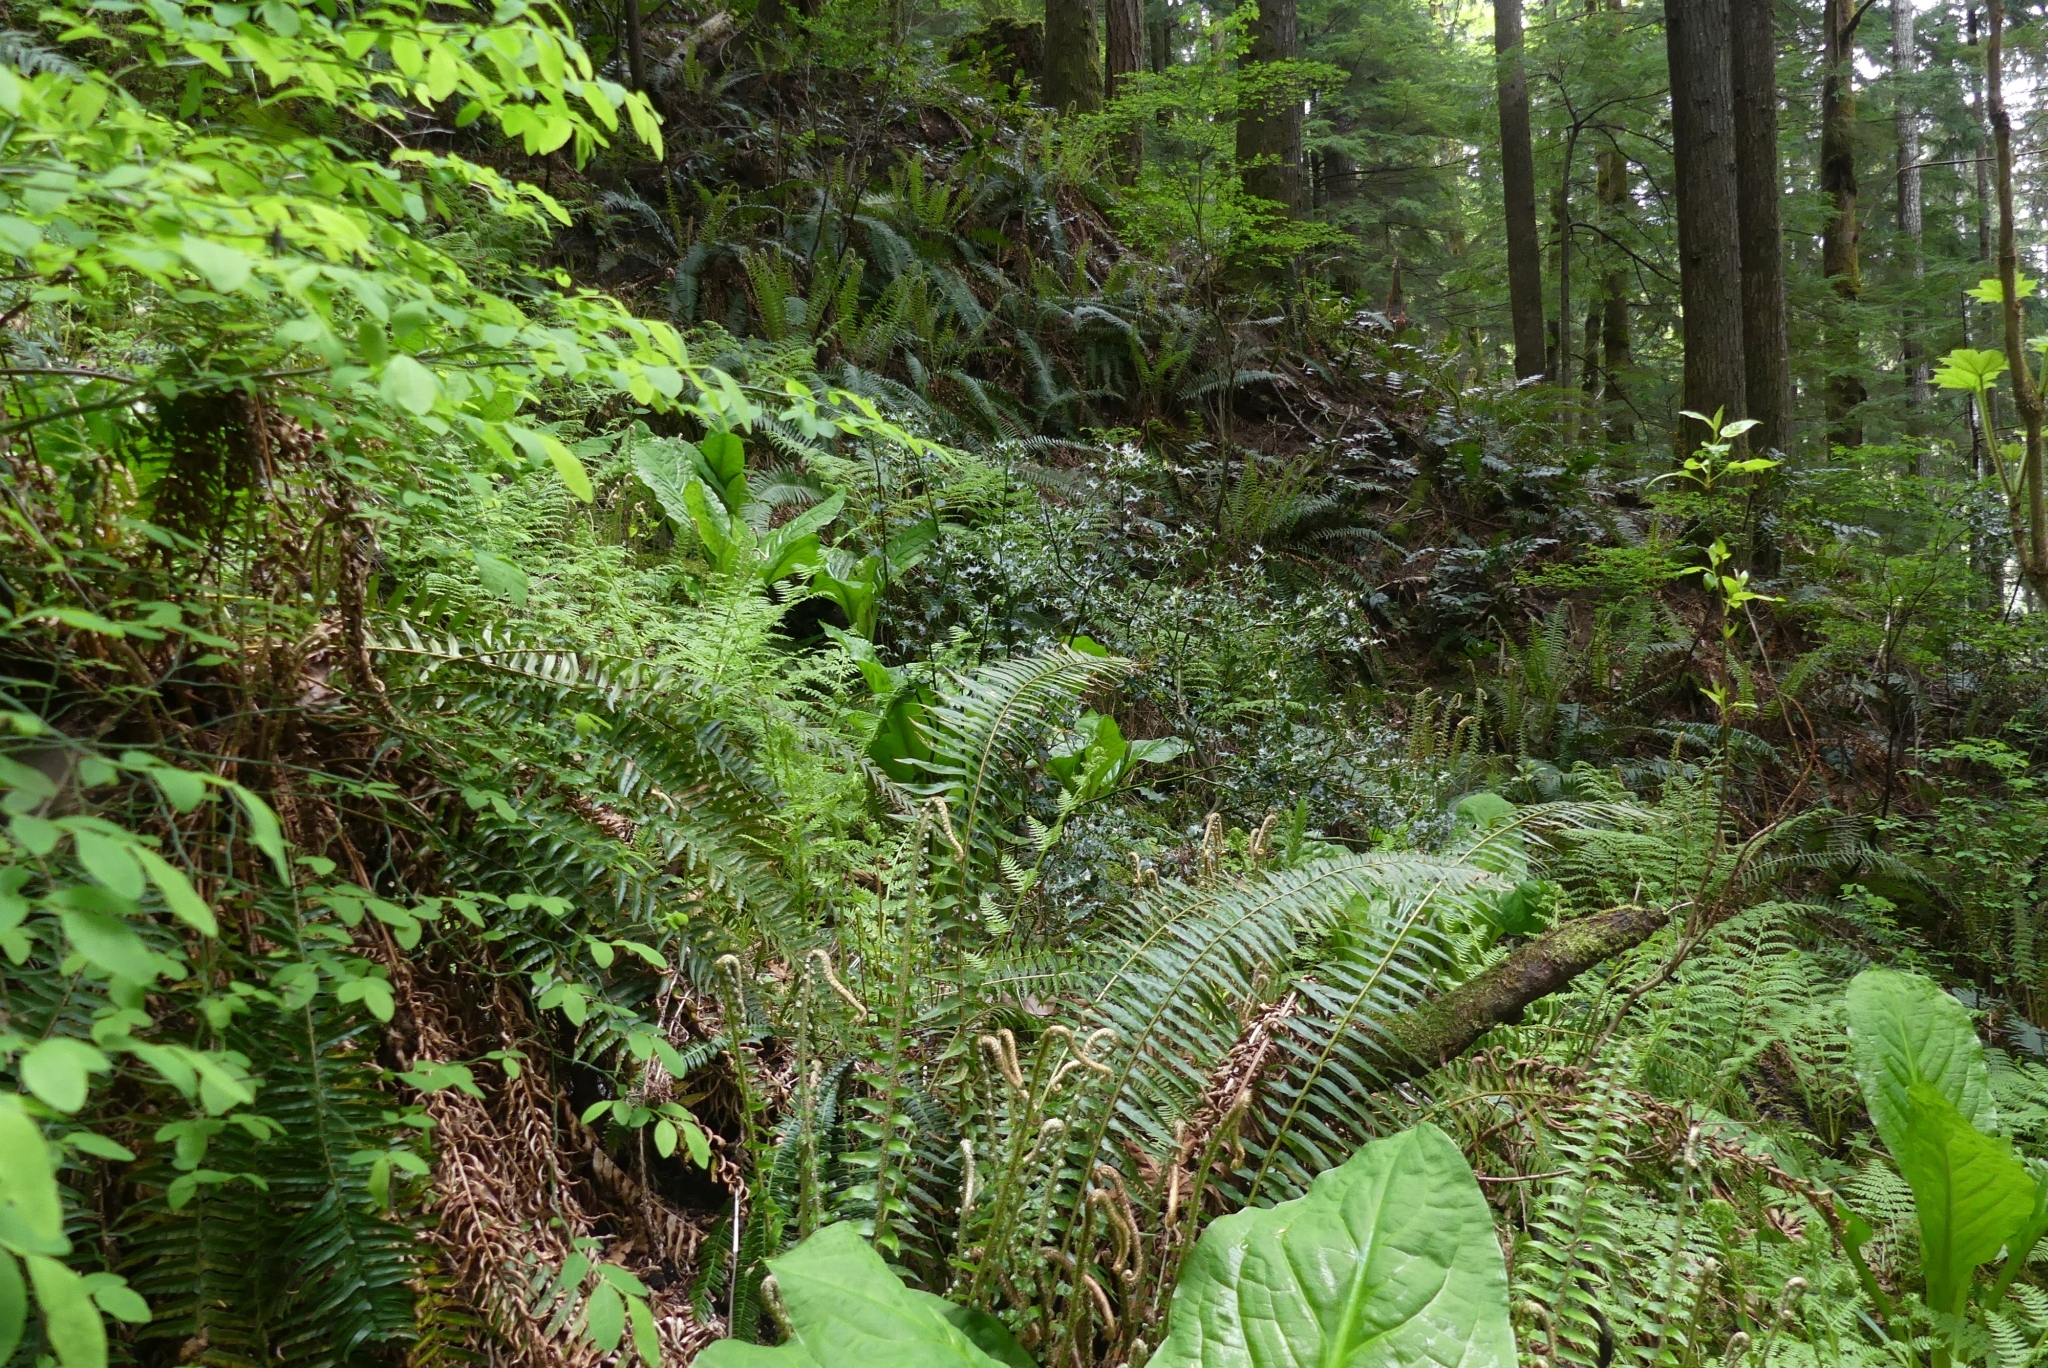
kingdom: Plantae
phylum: Tracheophyta
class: Magnoliopsida
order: Aquifoliales
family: Aquifoliaceae
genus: Ilex
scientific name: Ilex aquifolium
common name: English holly
